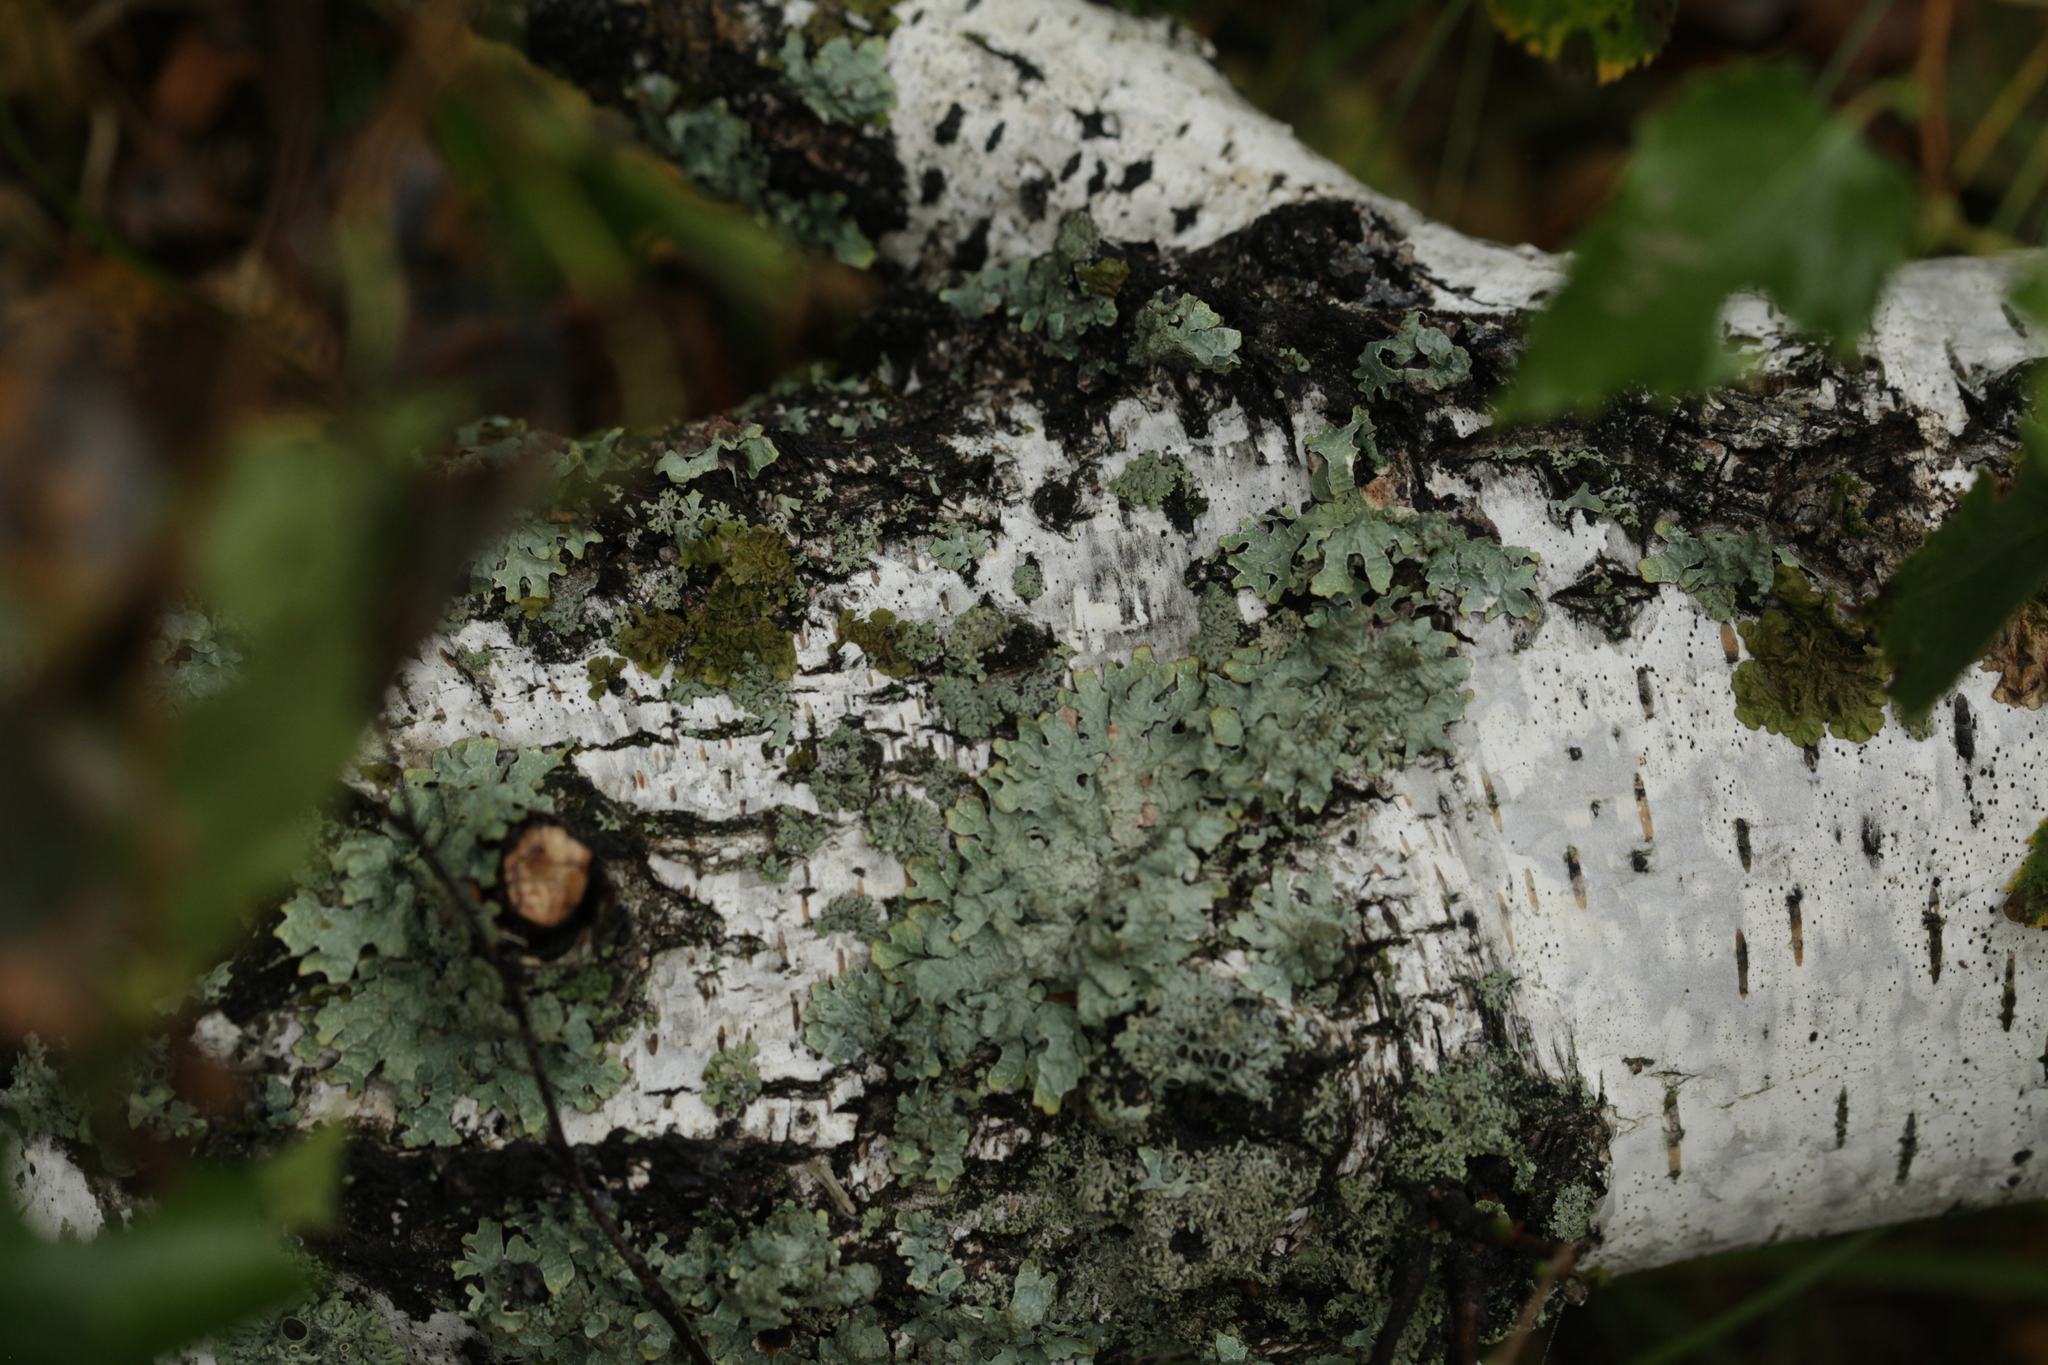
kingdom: Fungi
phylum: Ascomycota
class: Lecanoromycetes
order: Lecanorales
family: Parmeliaceae
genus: Parmelia
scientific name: Parmelia sulcata
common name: Netted shield lichen
